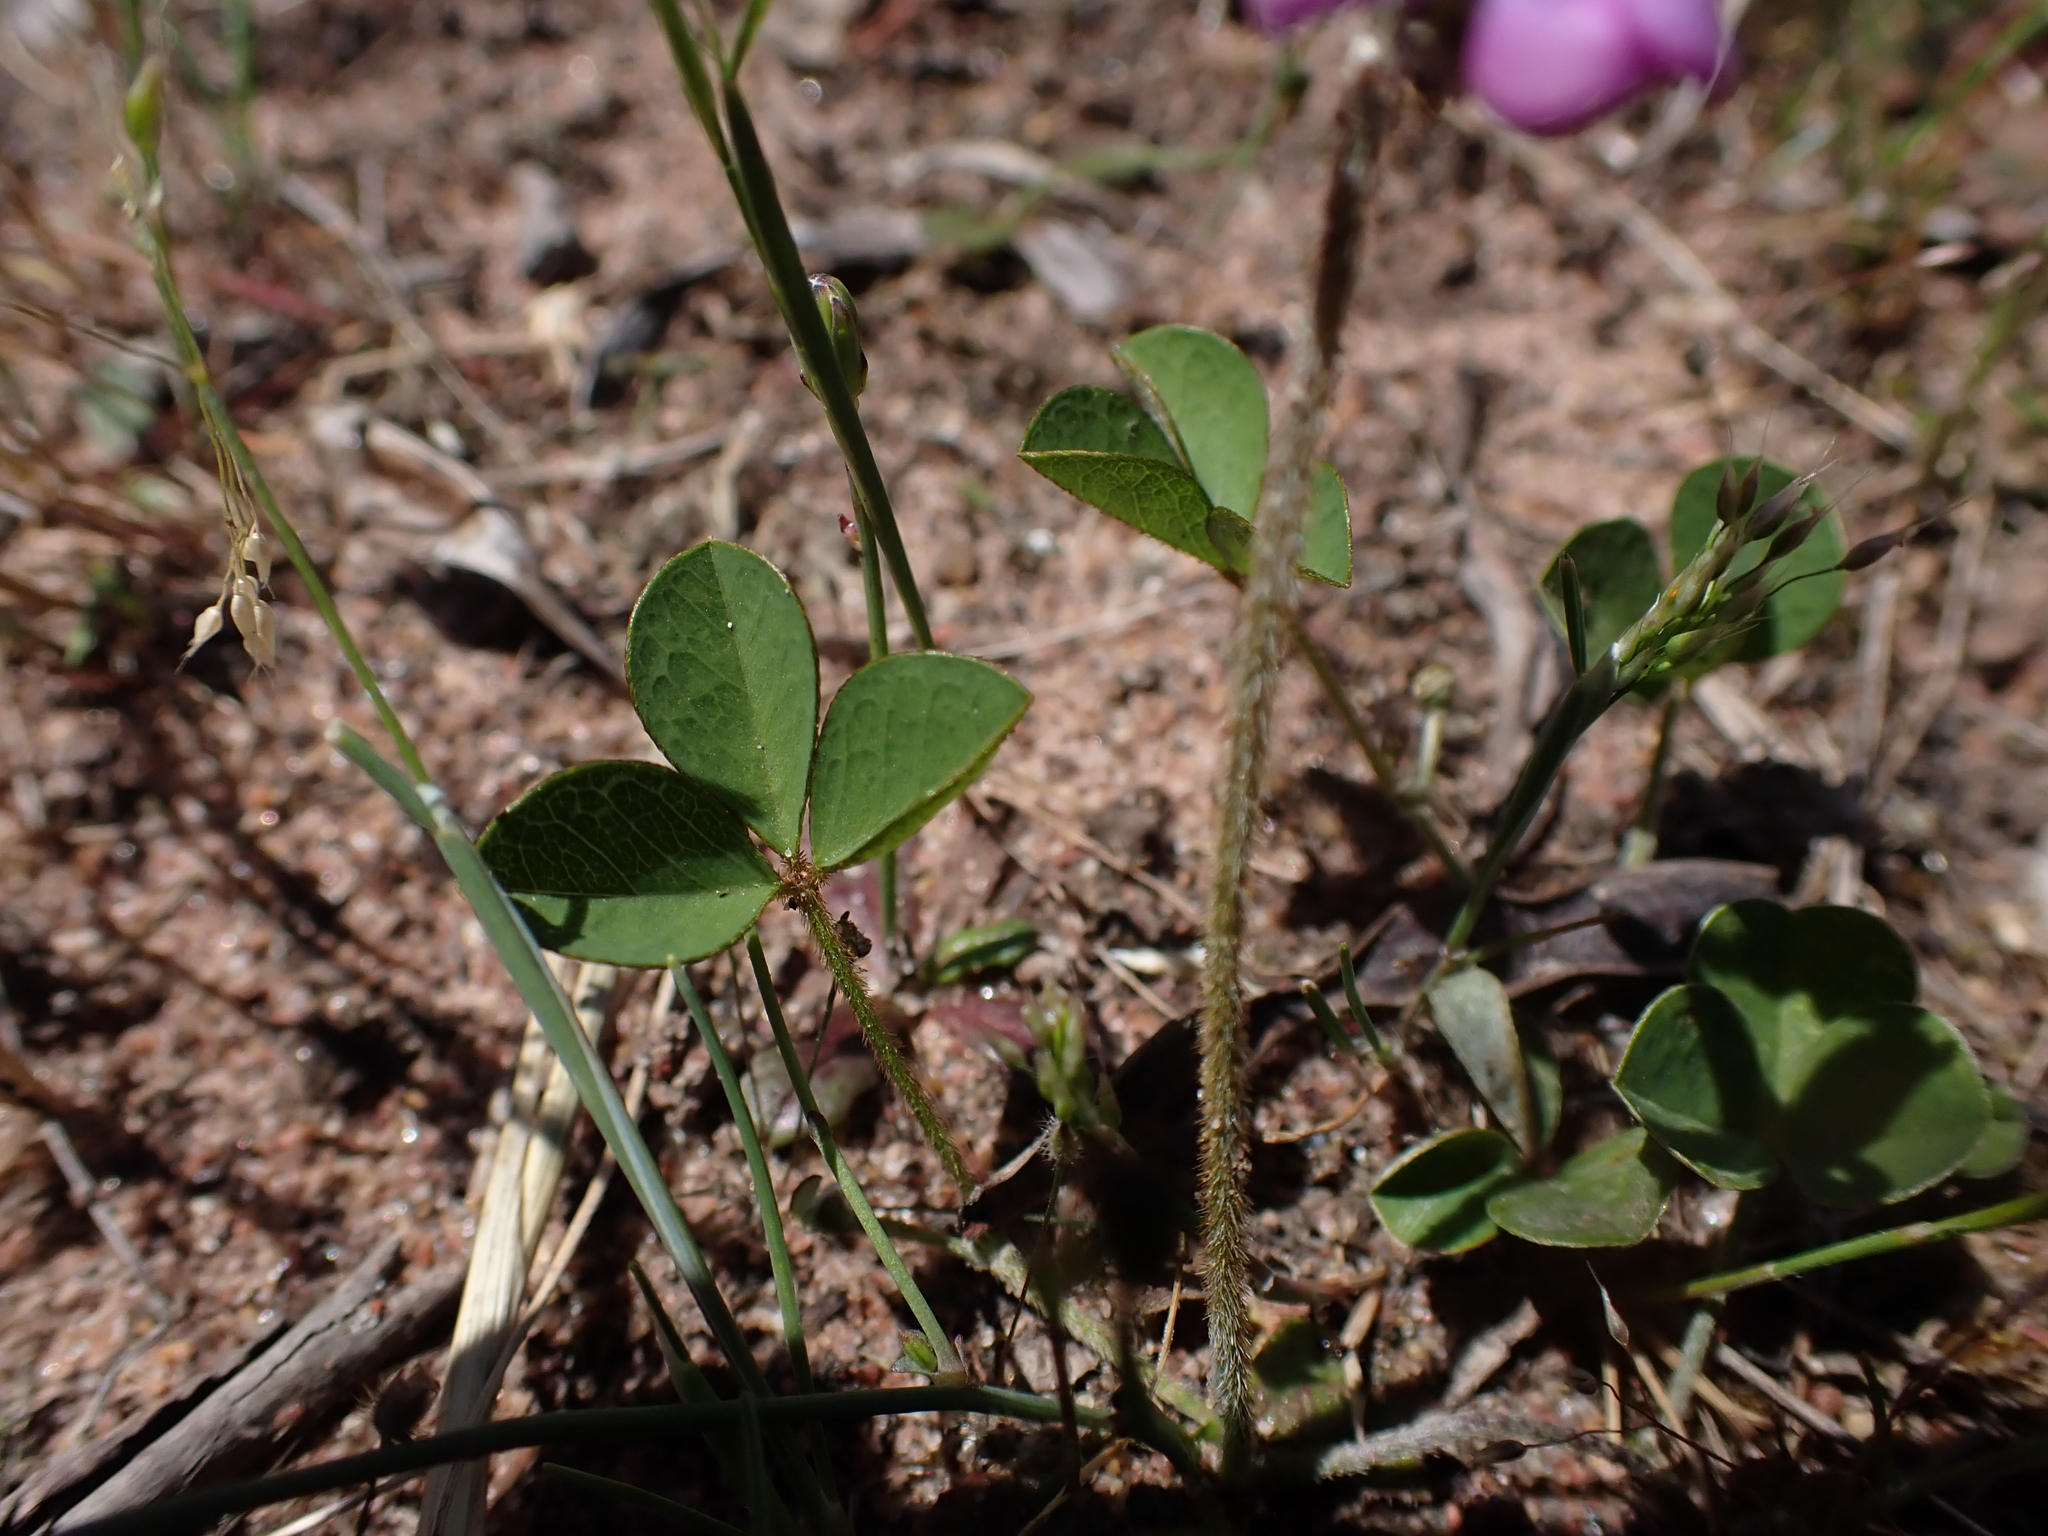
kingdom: Plantae
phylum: Tracheophyta
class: Magnoliopsida
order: Fabales
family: Fabaceae
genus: Glycine
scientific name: Glycine latrobeana
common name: Clover glycine
